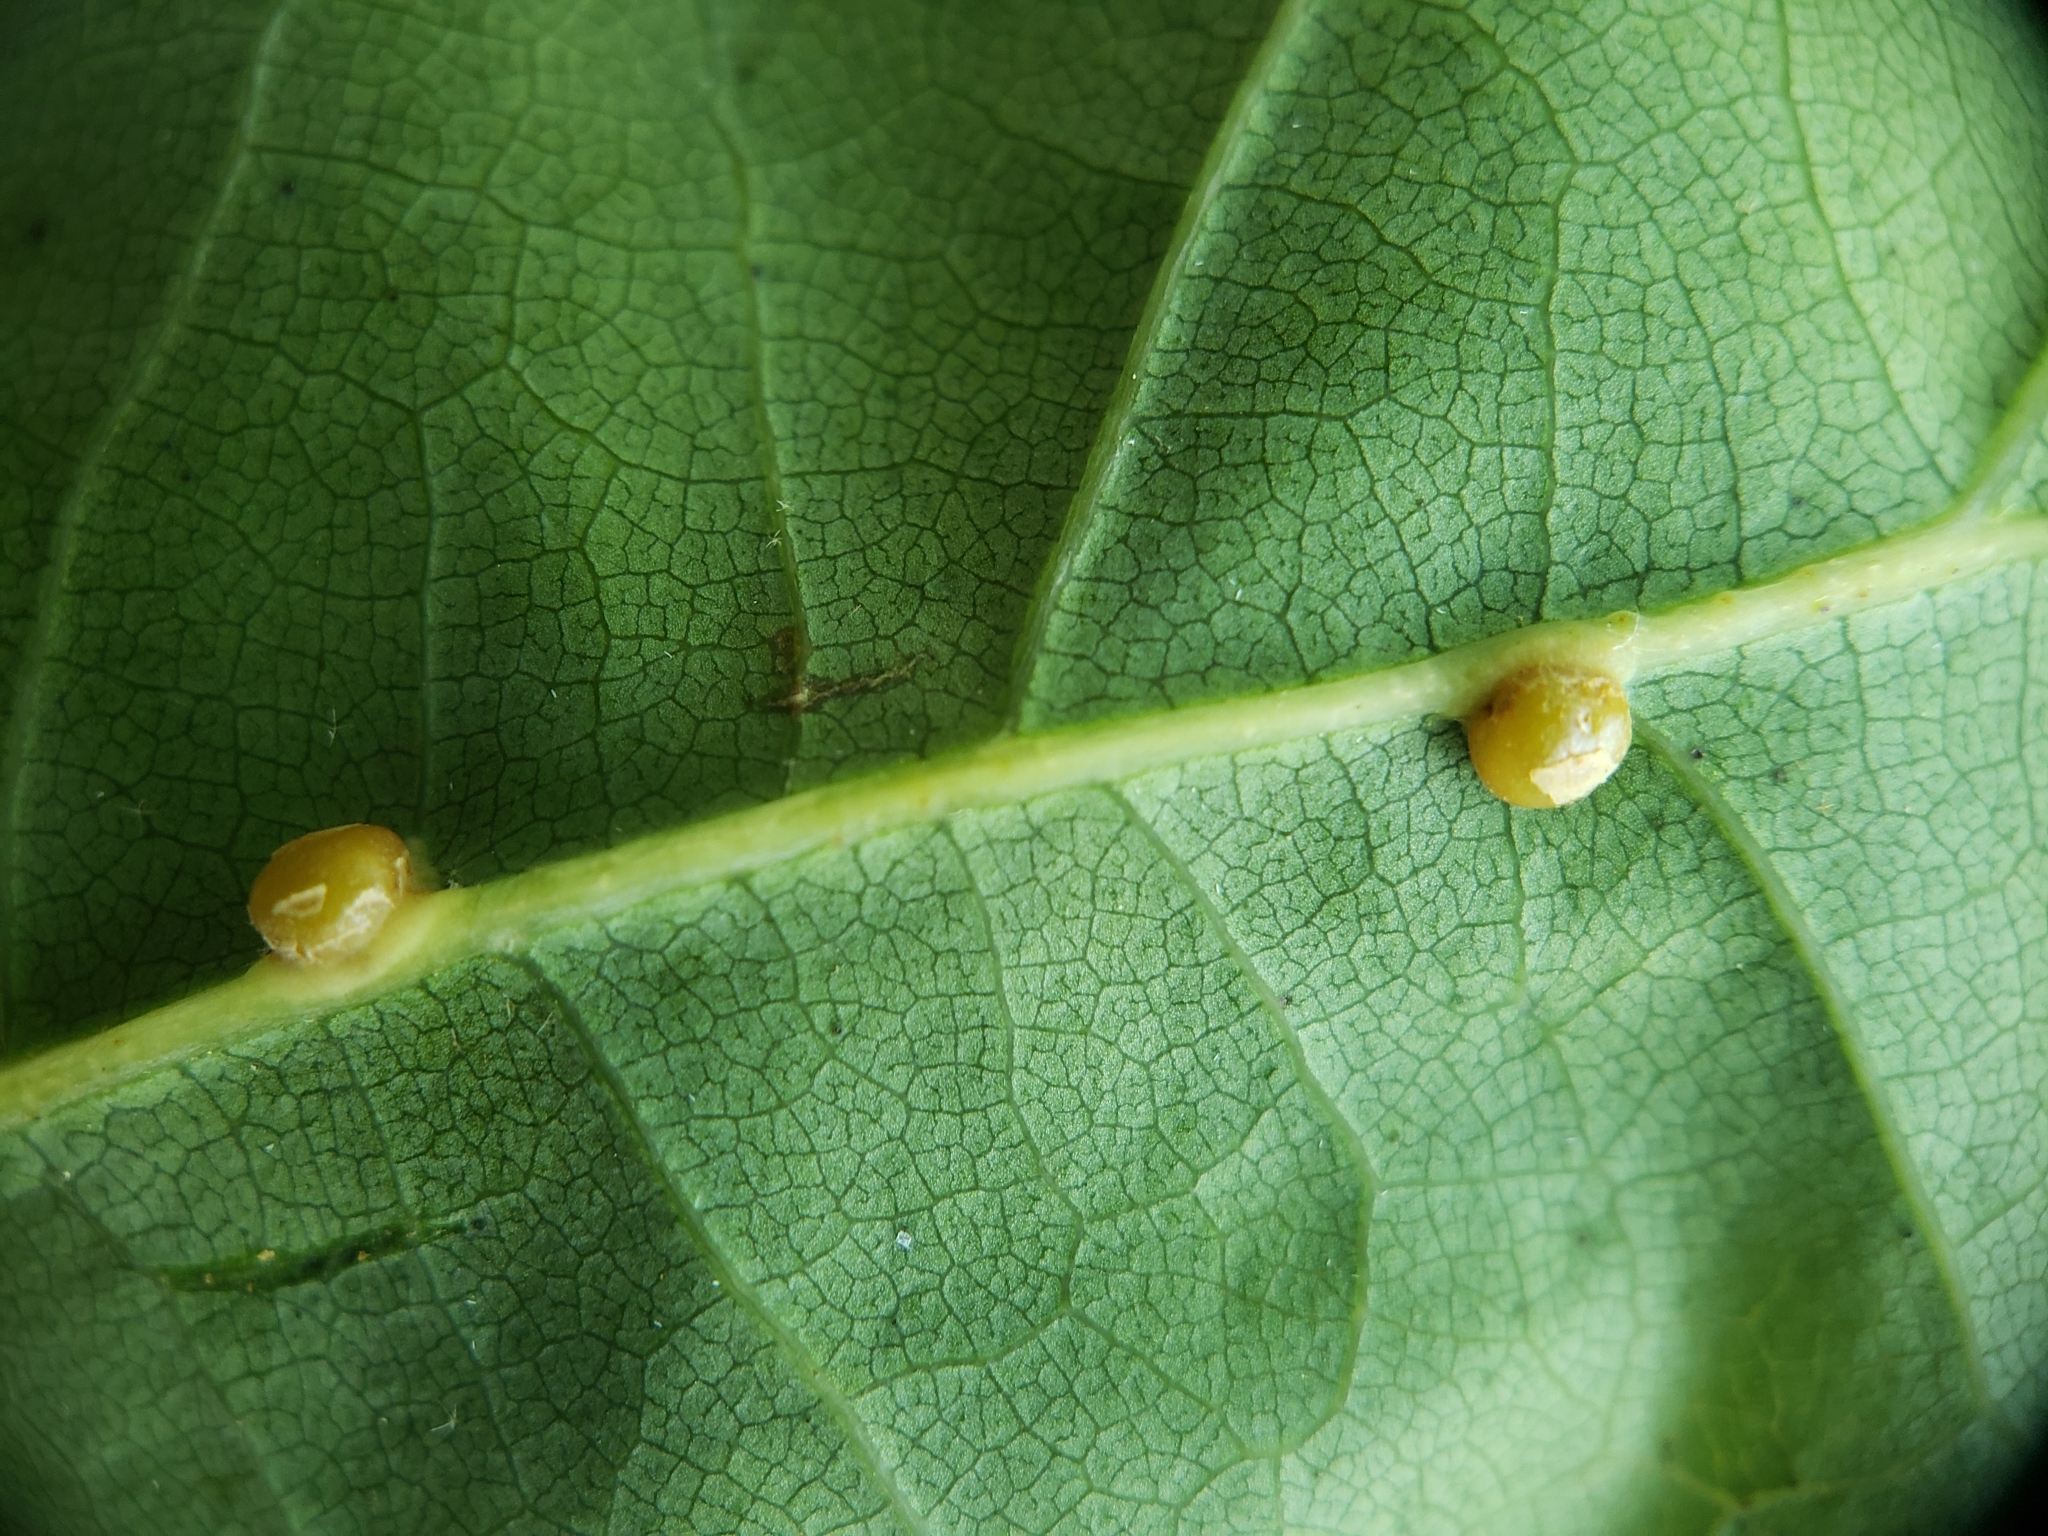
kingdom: Animalia
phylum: Arthropoda
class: Insecta
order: Diptera
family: Cecidomyiidae
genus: Polystepha
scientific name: Polystepha globosa
